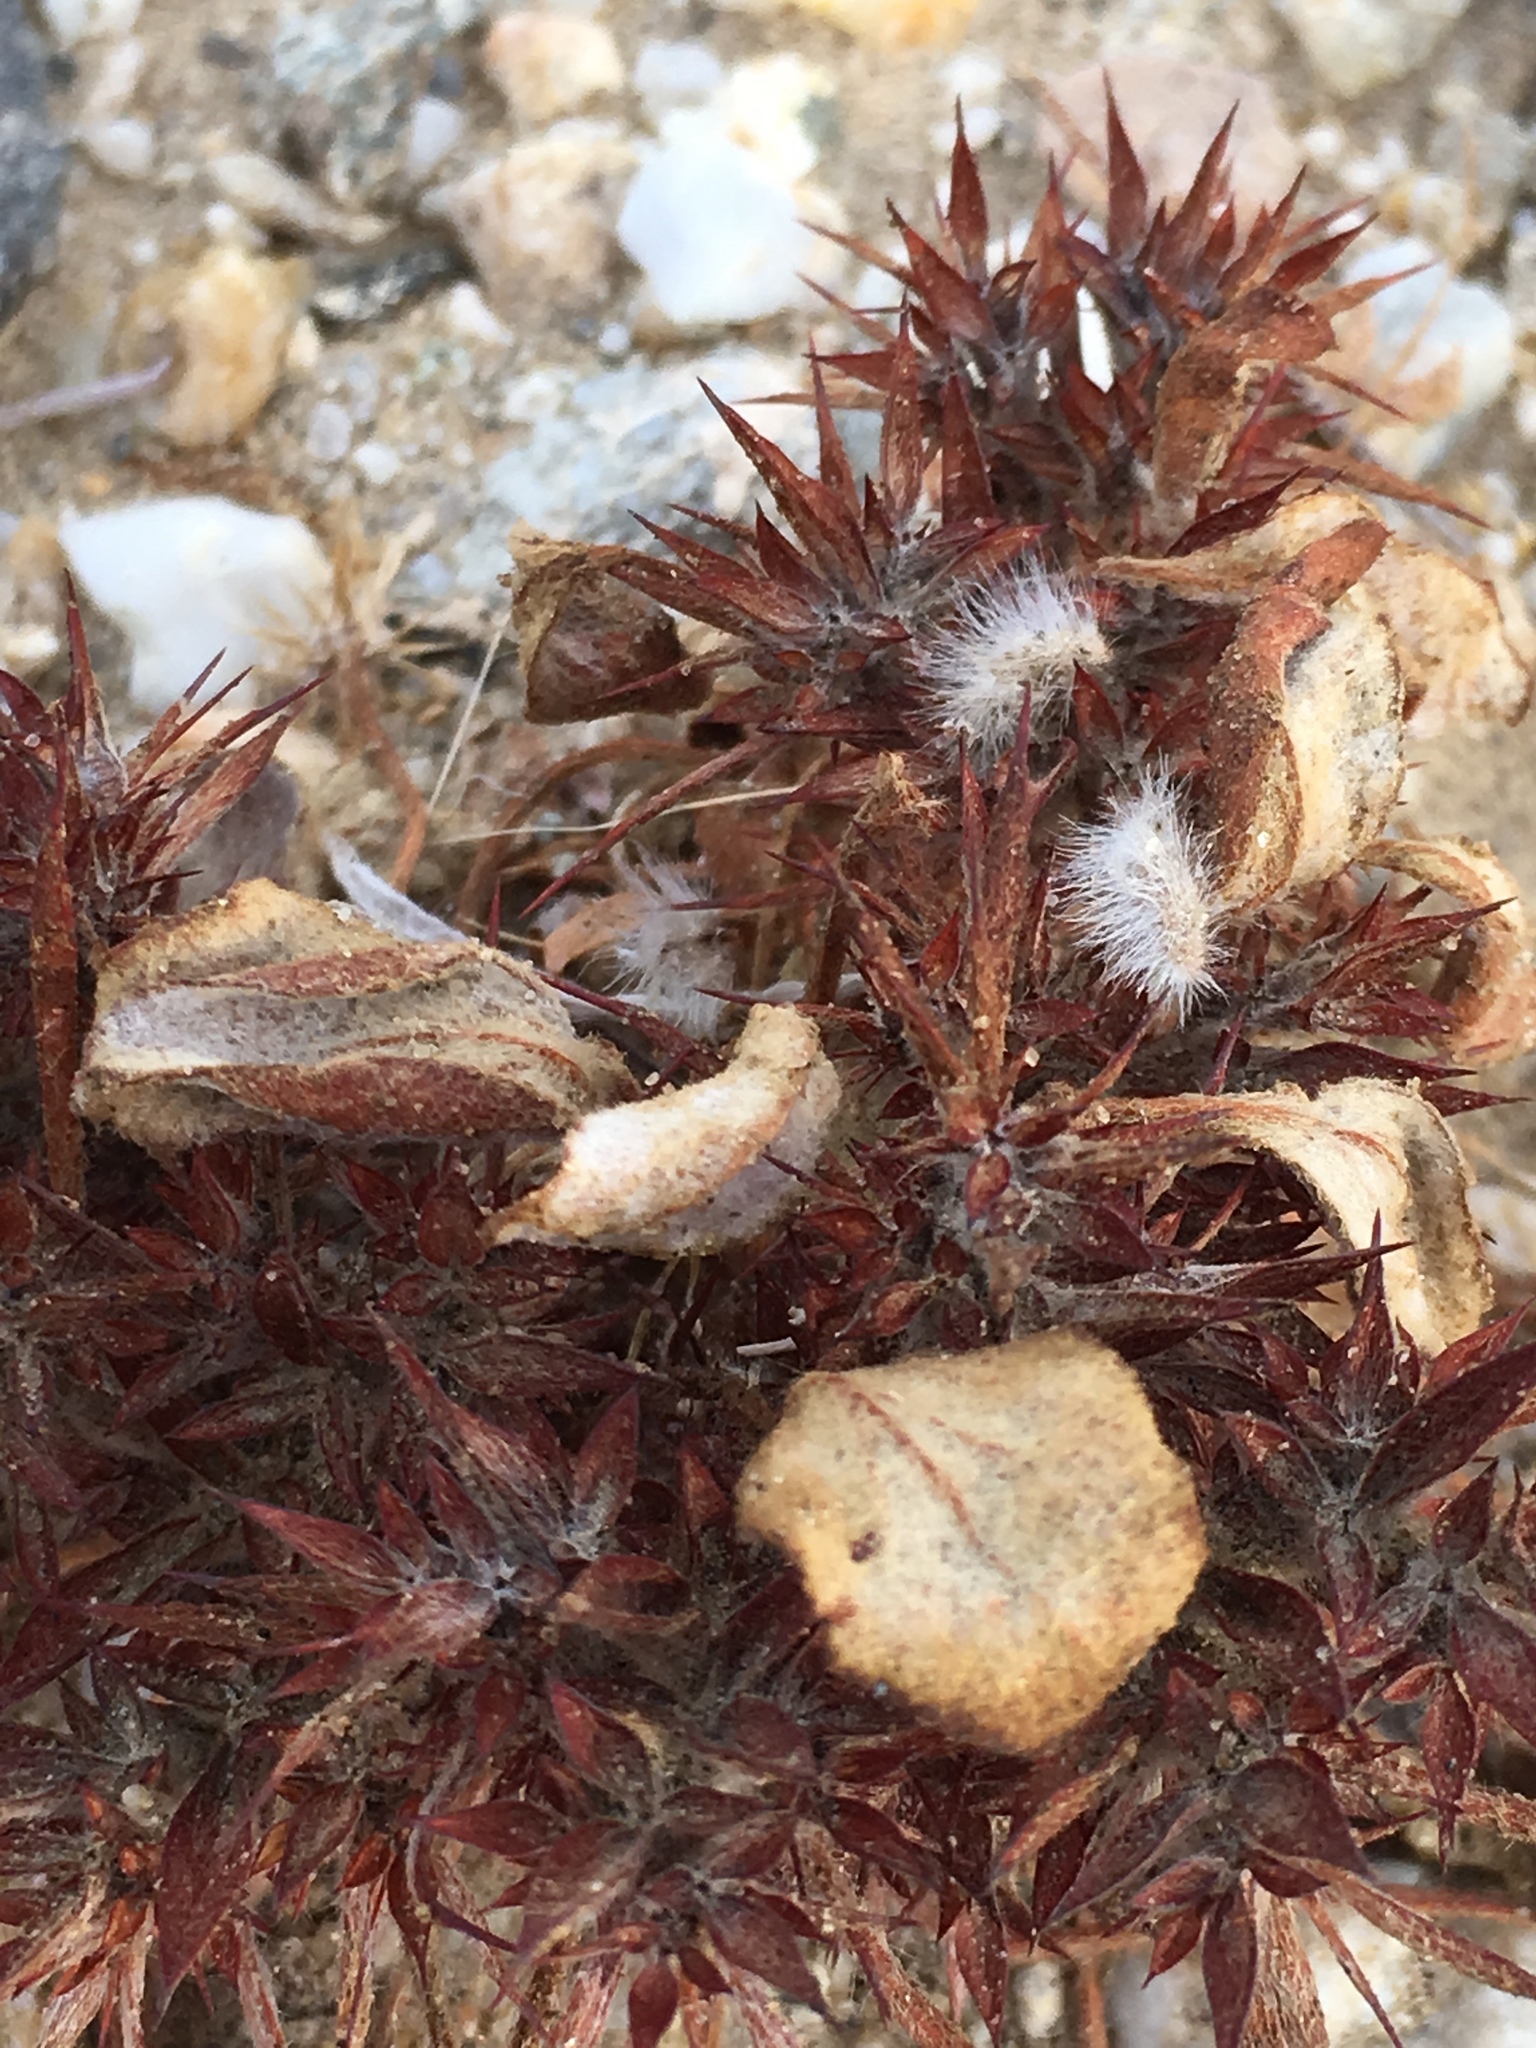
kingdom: Plantae
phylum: Tracheophyta
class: Magnoliopsida
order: Caryophyllales
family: Polygonaceae
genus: Chorizanthe
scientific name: Chorizanthe rigida
